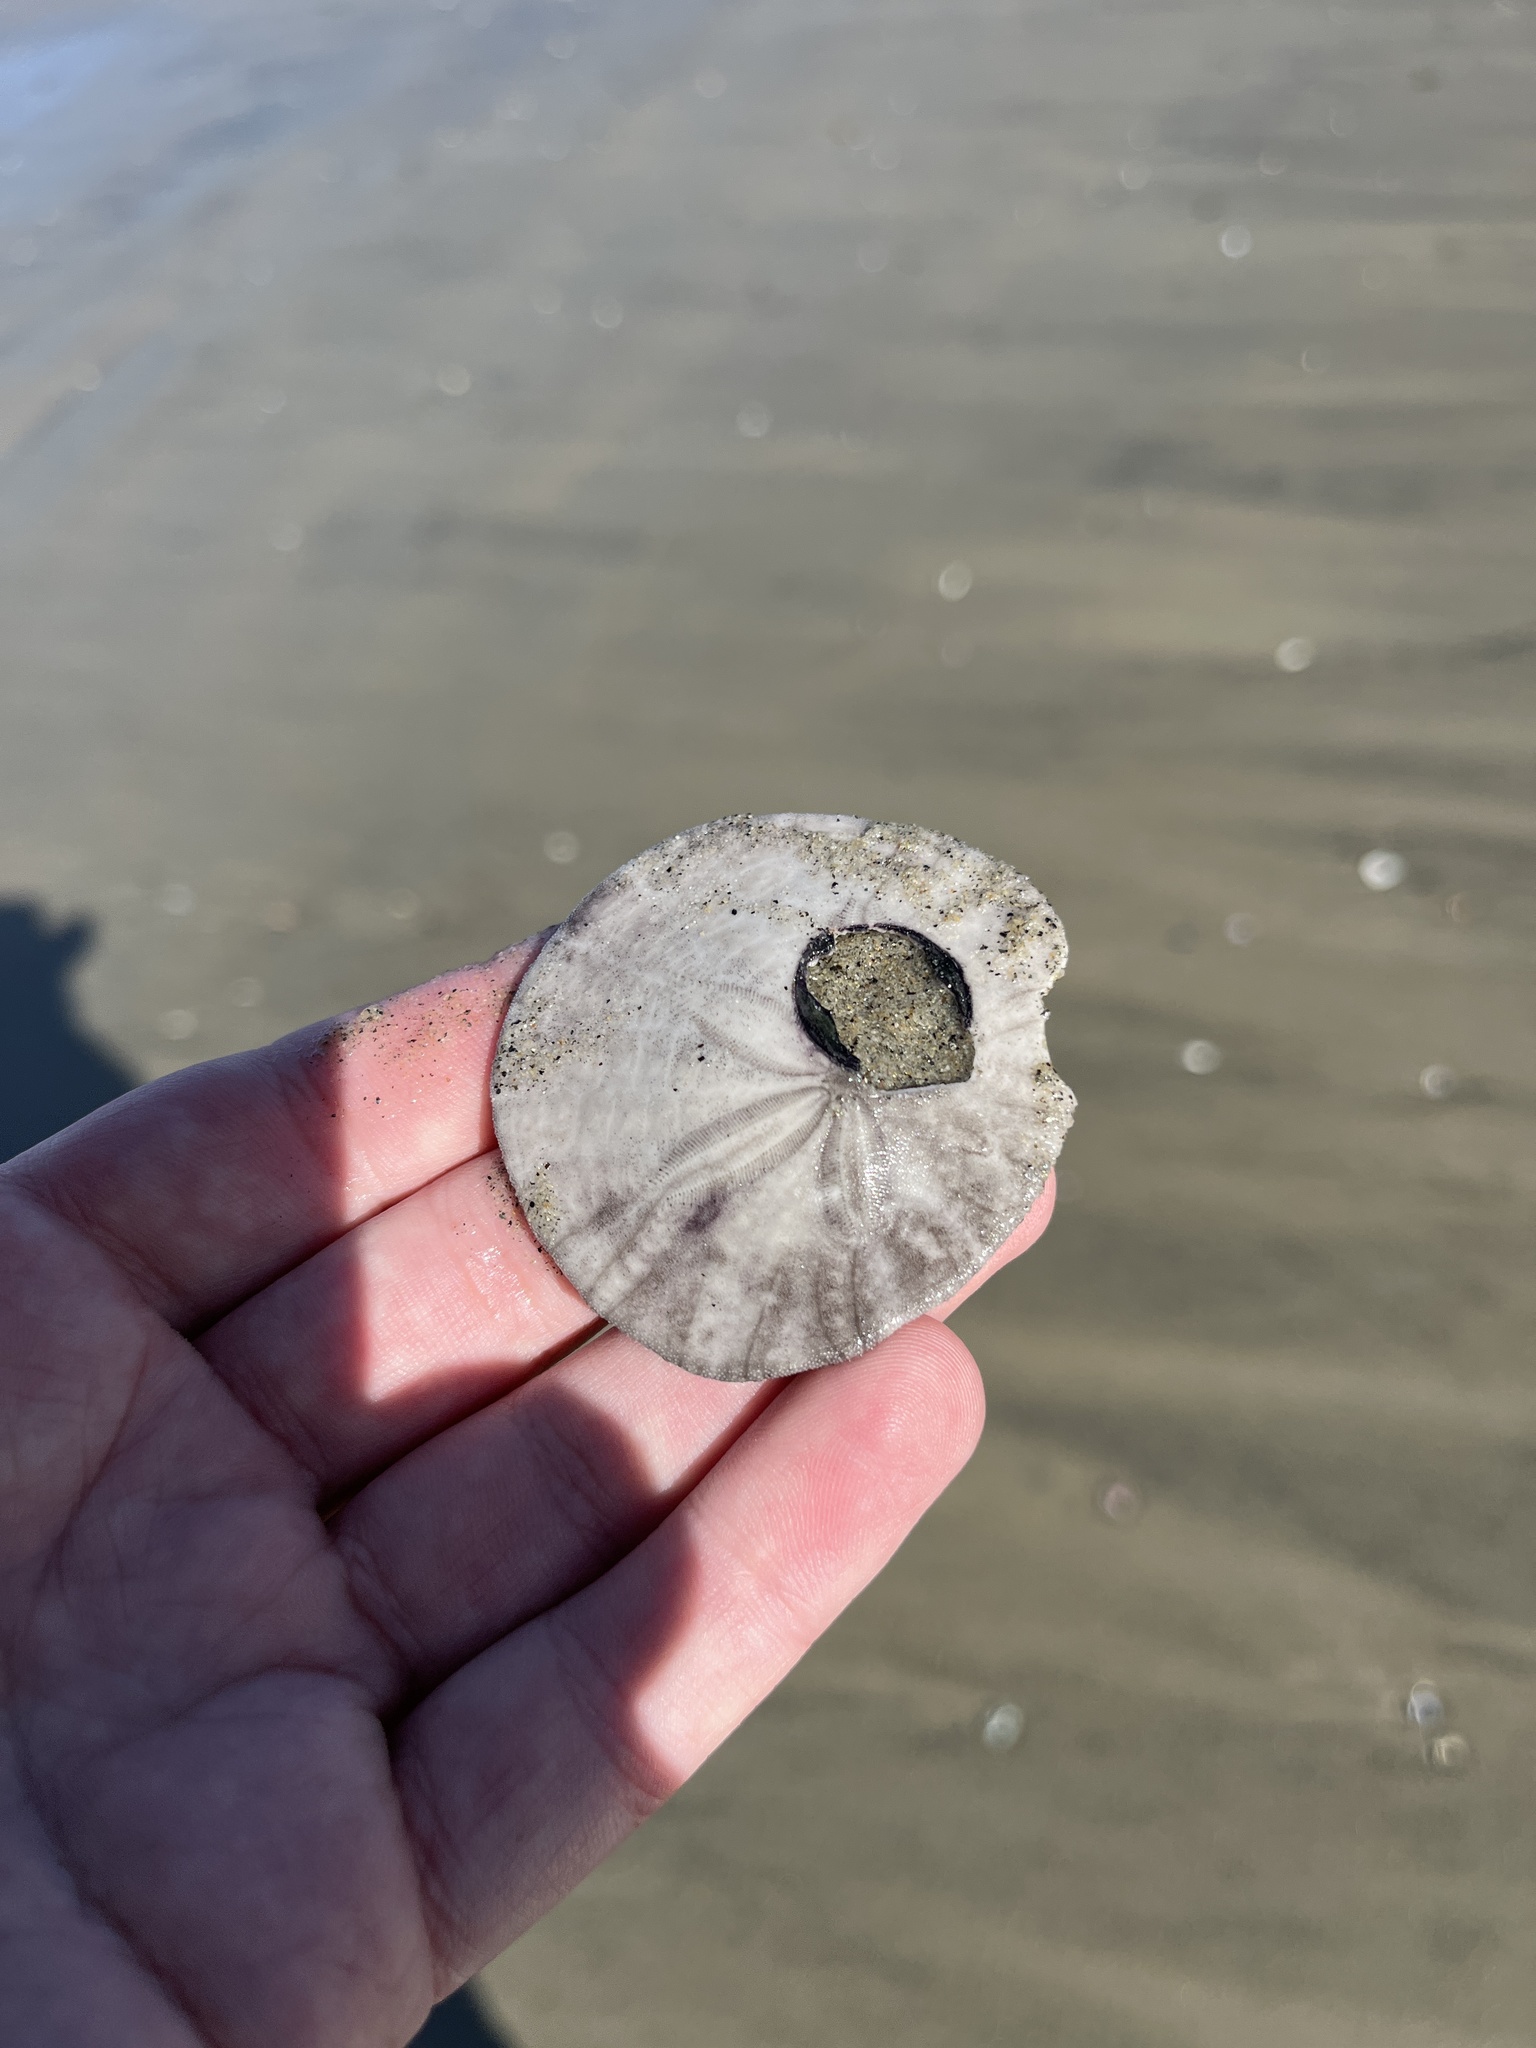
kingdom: Animalia
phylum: Echinodermata
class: Echinoidea
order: Echinolampadacea
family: Dendrasteridae
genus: Dendraster
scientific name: Dendraster excentricus
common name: Eccentric sand dollar sea urchin
